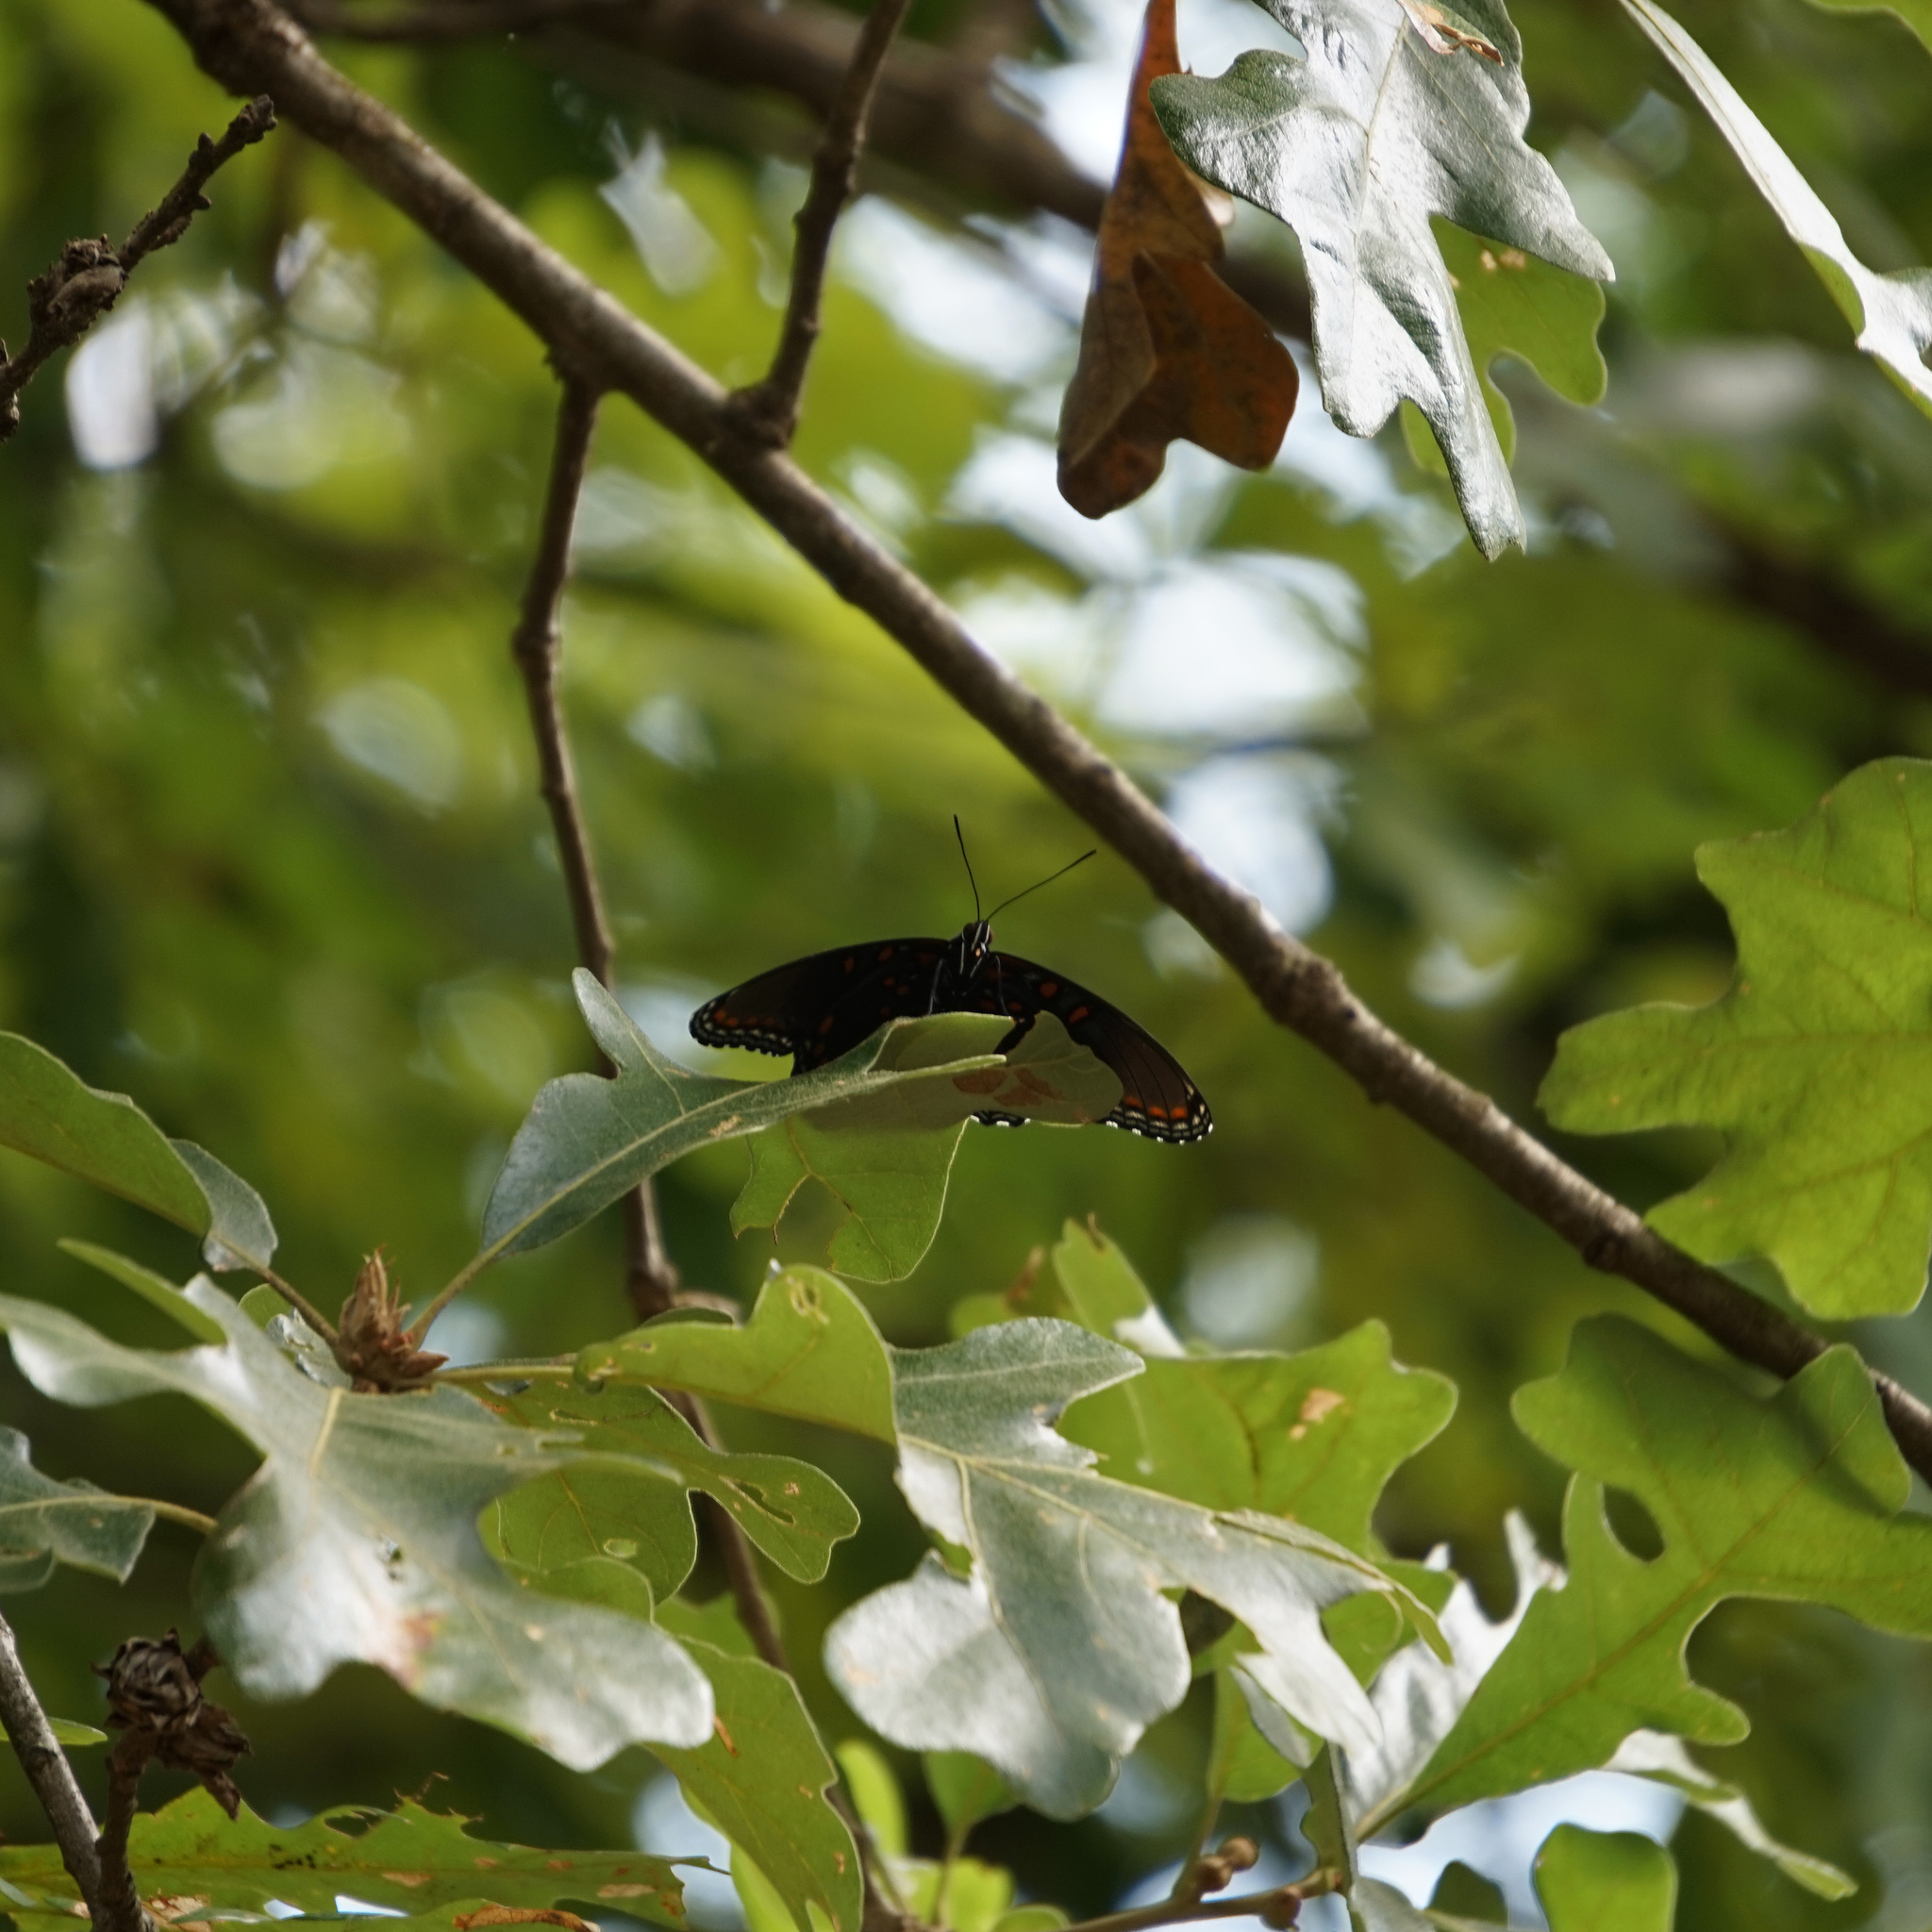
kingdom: Animalia
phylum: Arthropoda
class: Insecta
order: Lepidoptera
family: Nymphalidae
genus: Limenitis
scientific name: Limenitis arthemis
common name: Red-spotted admiral
